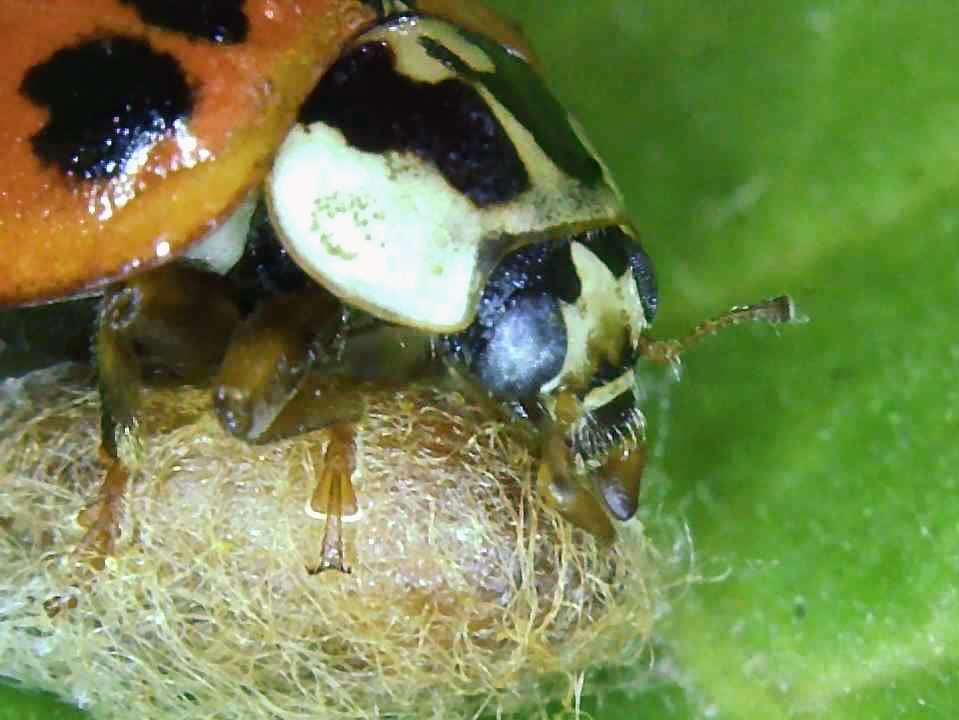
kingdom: Animalia
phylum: Arthropoda
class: Insecta
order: Coleoptera
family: Coccinellidae
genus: Harmonia
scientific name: Harmonia axyridis
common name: Harlequin ladybird
